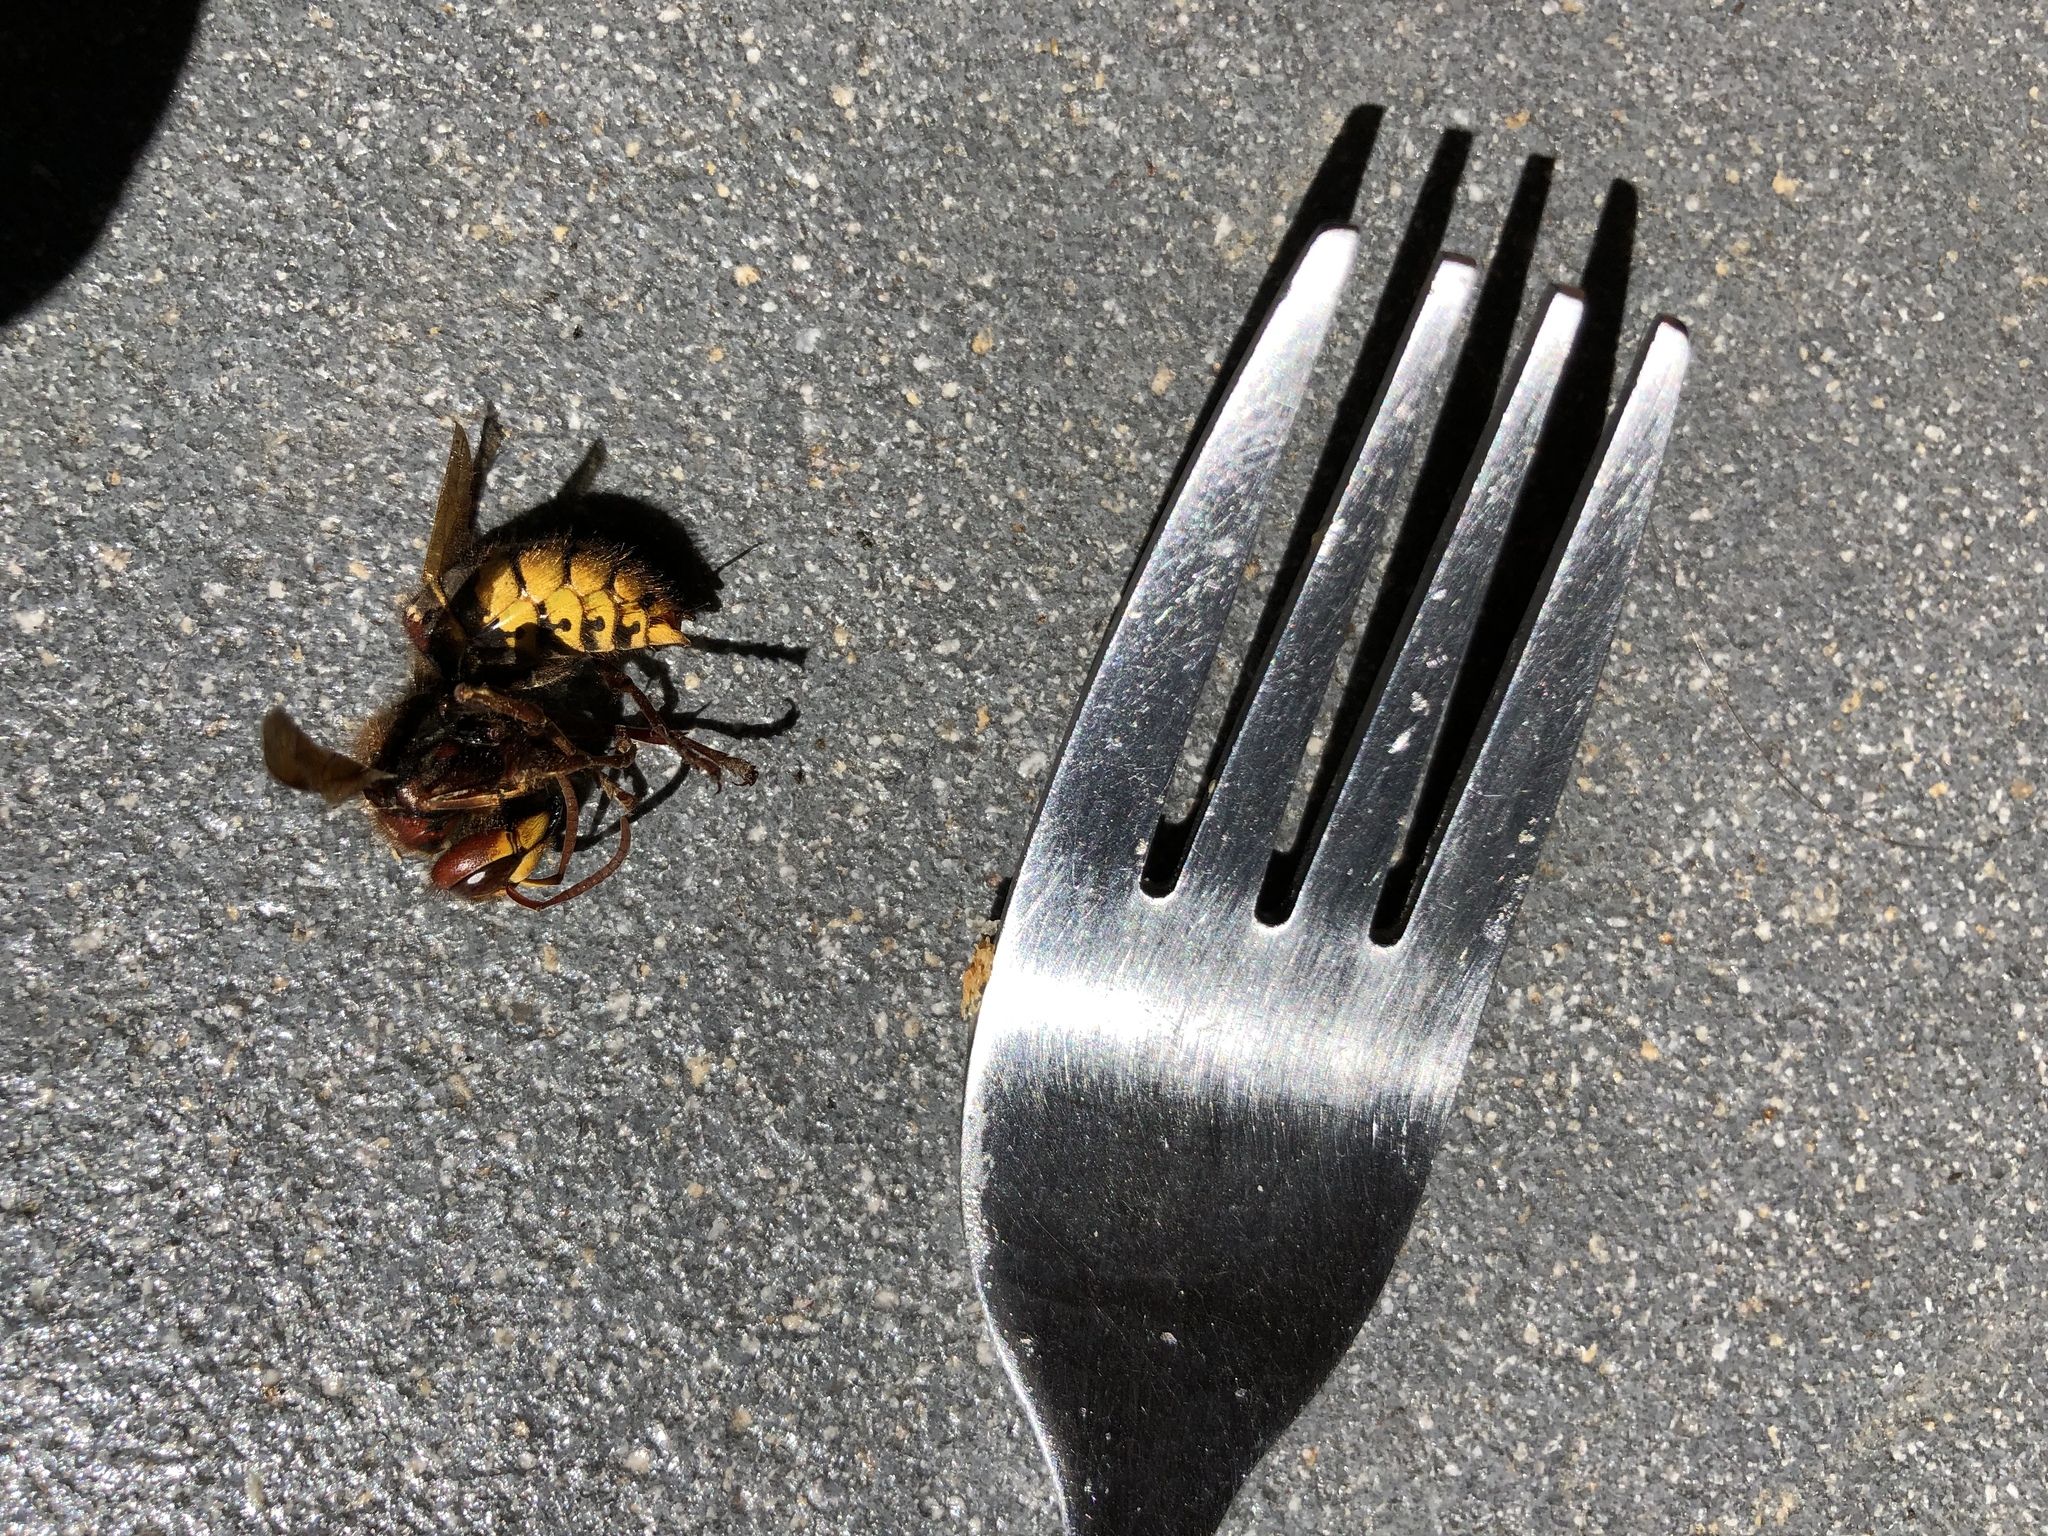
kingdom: Animalia
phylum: Arthropoda
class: Insecta
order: Hymenoptera
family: Vespidae
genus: Vespa
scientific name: Vespa crabro
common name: Hornet
